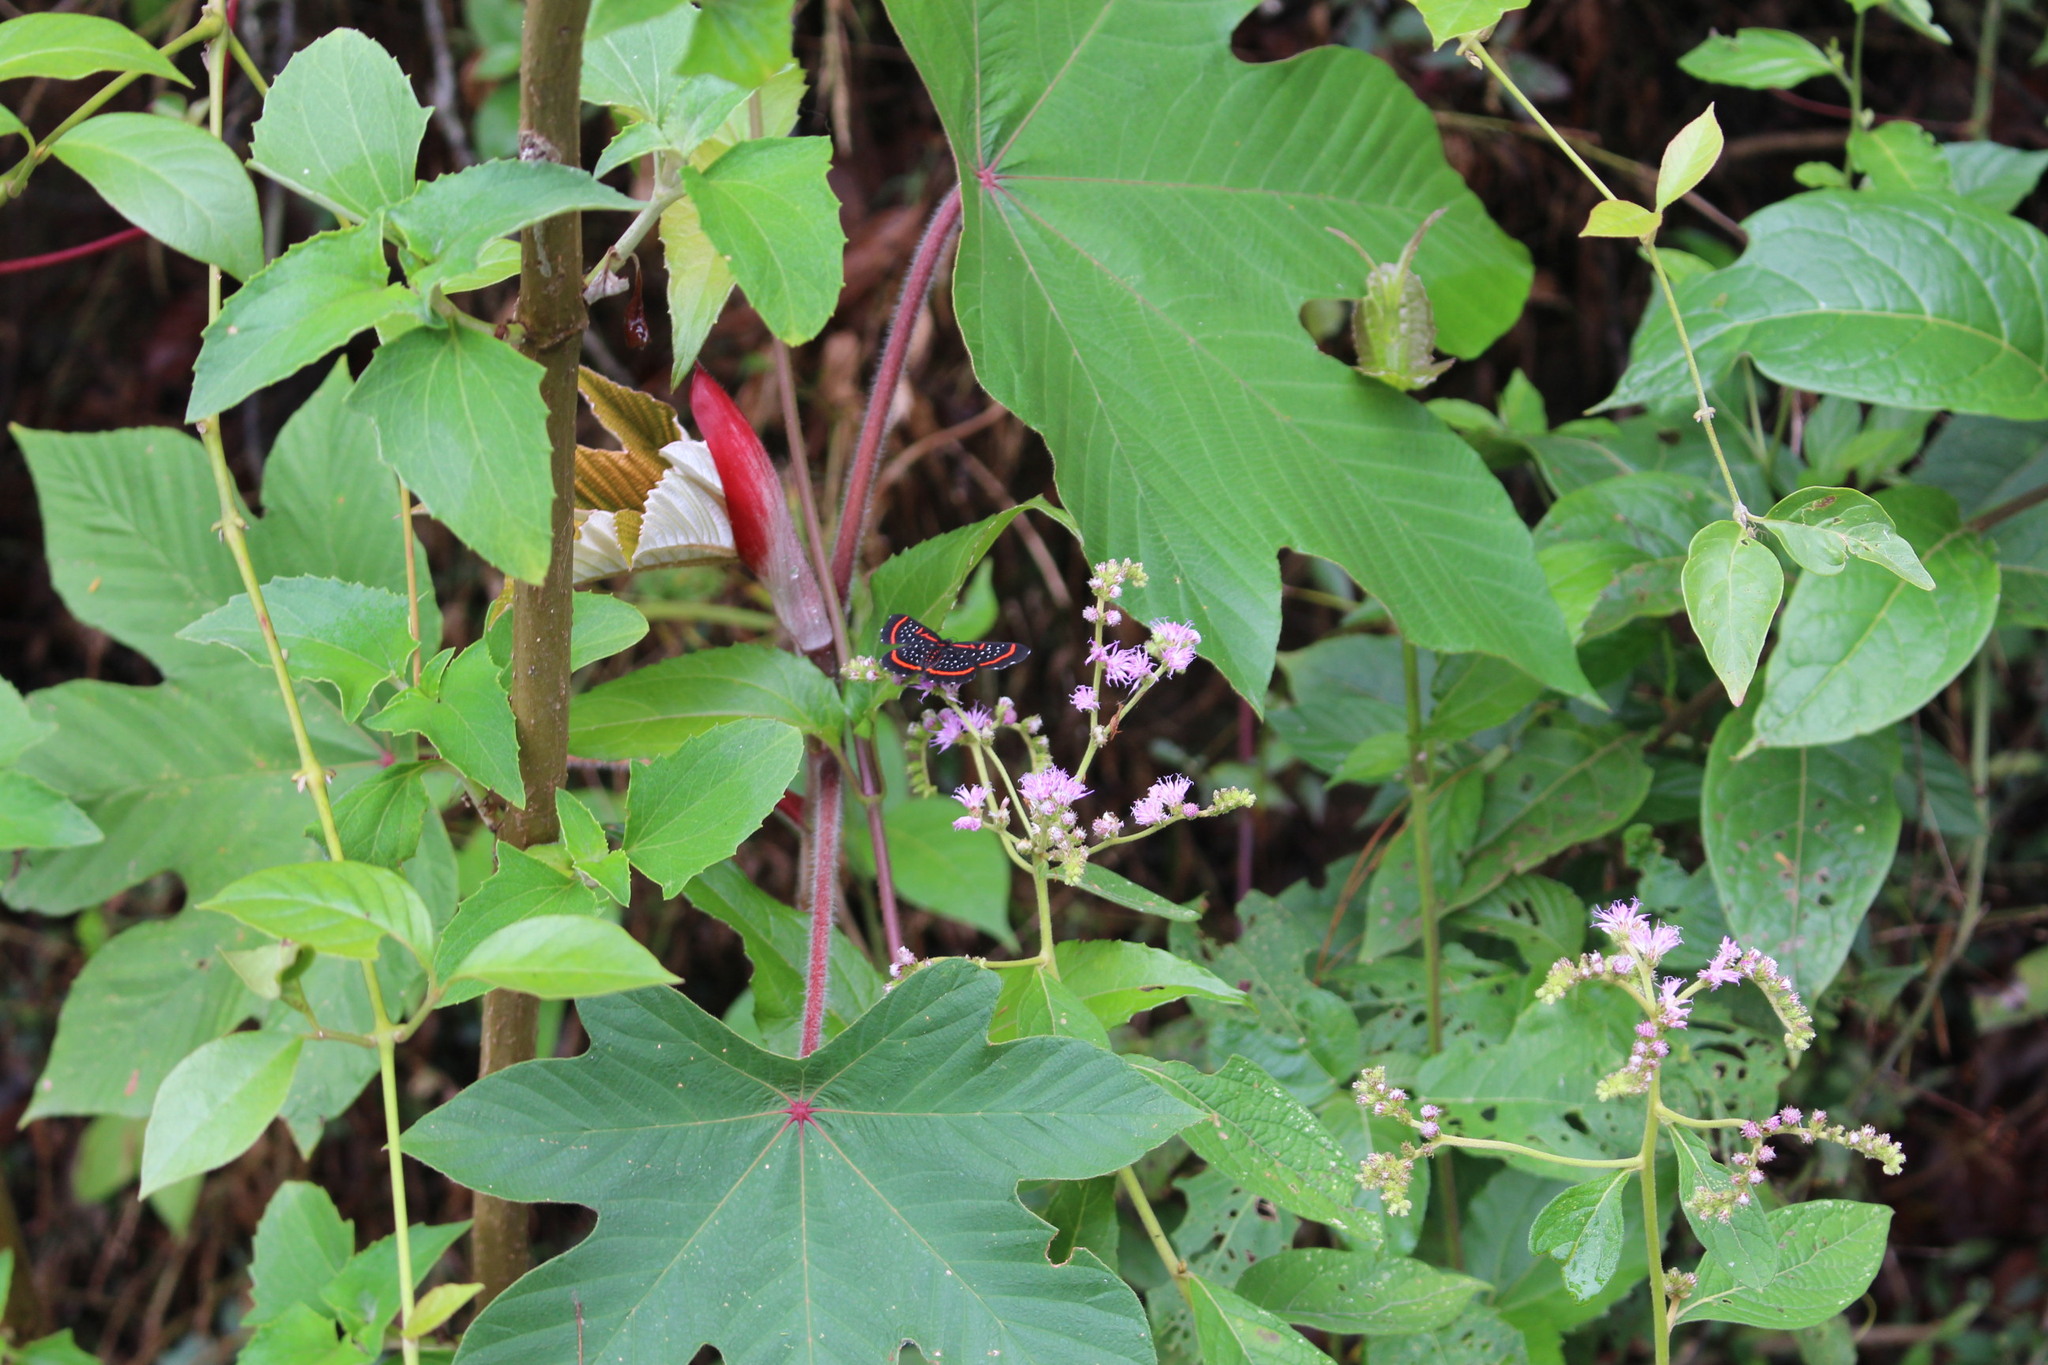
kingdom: Animalia
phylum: Arthropoda
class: Insecta
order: Lepidoptera
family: Riodinidae
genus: Amarynthis
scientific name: Amarynthis meneria
